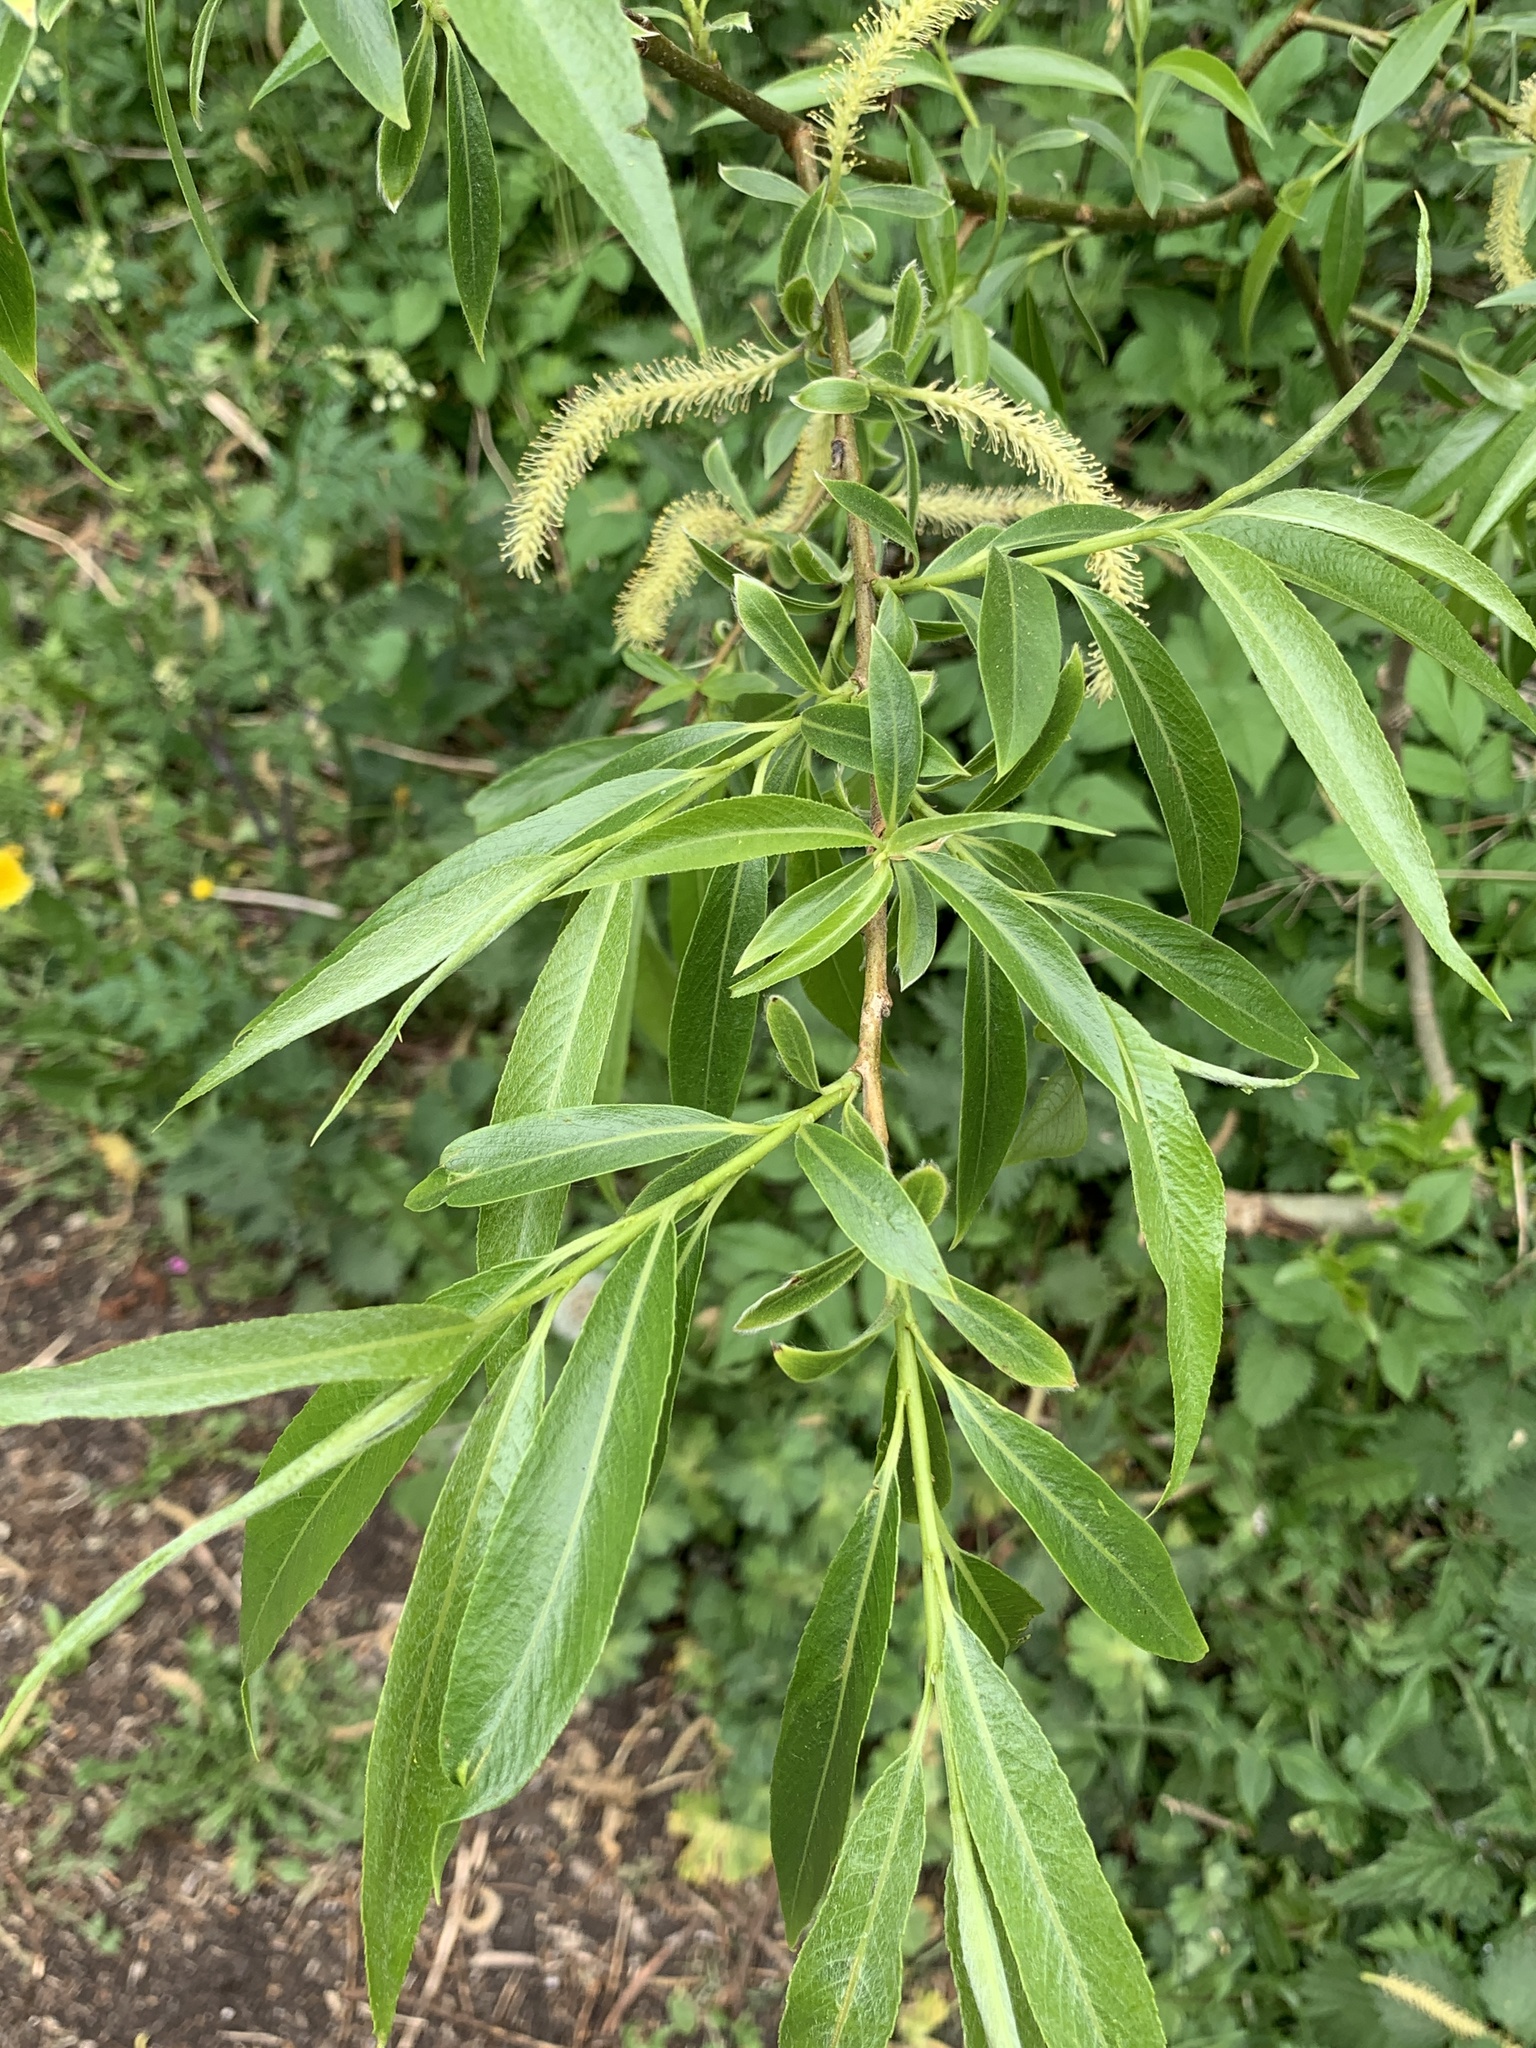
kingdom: Plantae
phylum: Tracheophyta
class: Magnoliopsida
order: Malpighiales
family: Salicaceae
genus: Salix
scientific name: Salix fragilis
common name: Crack willow
